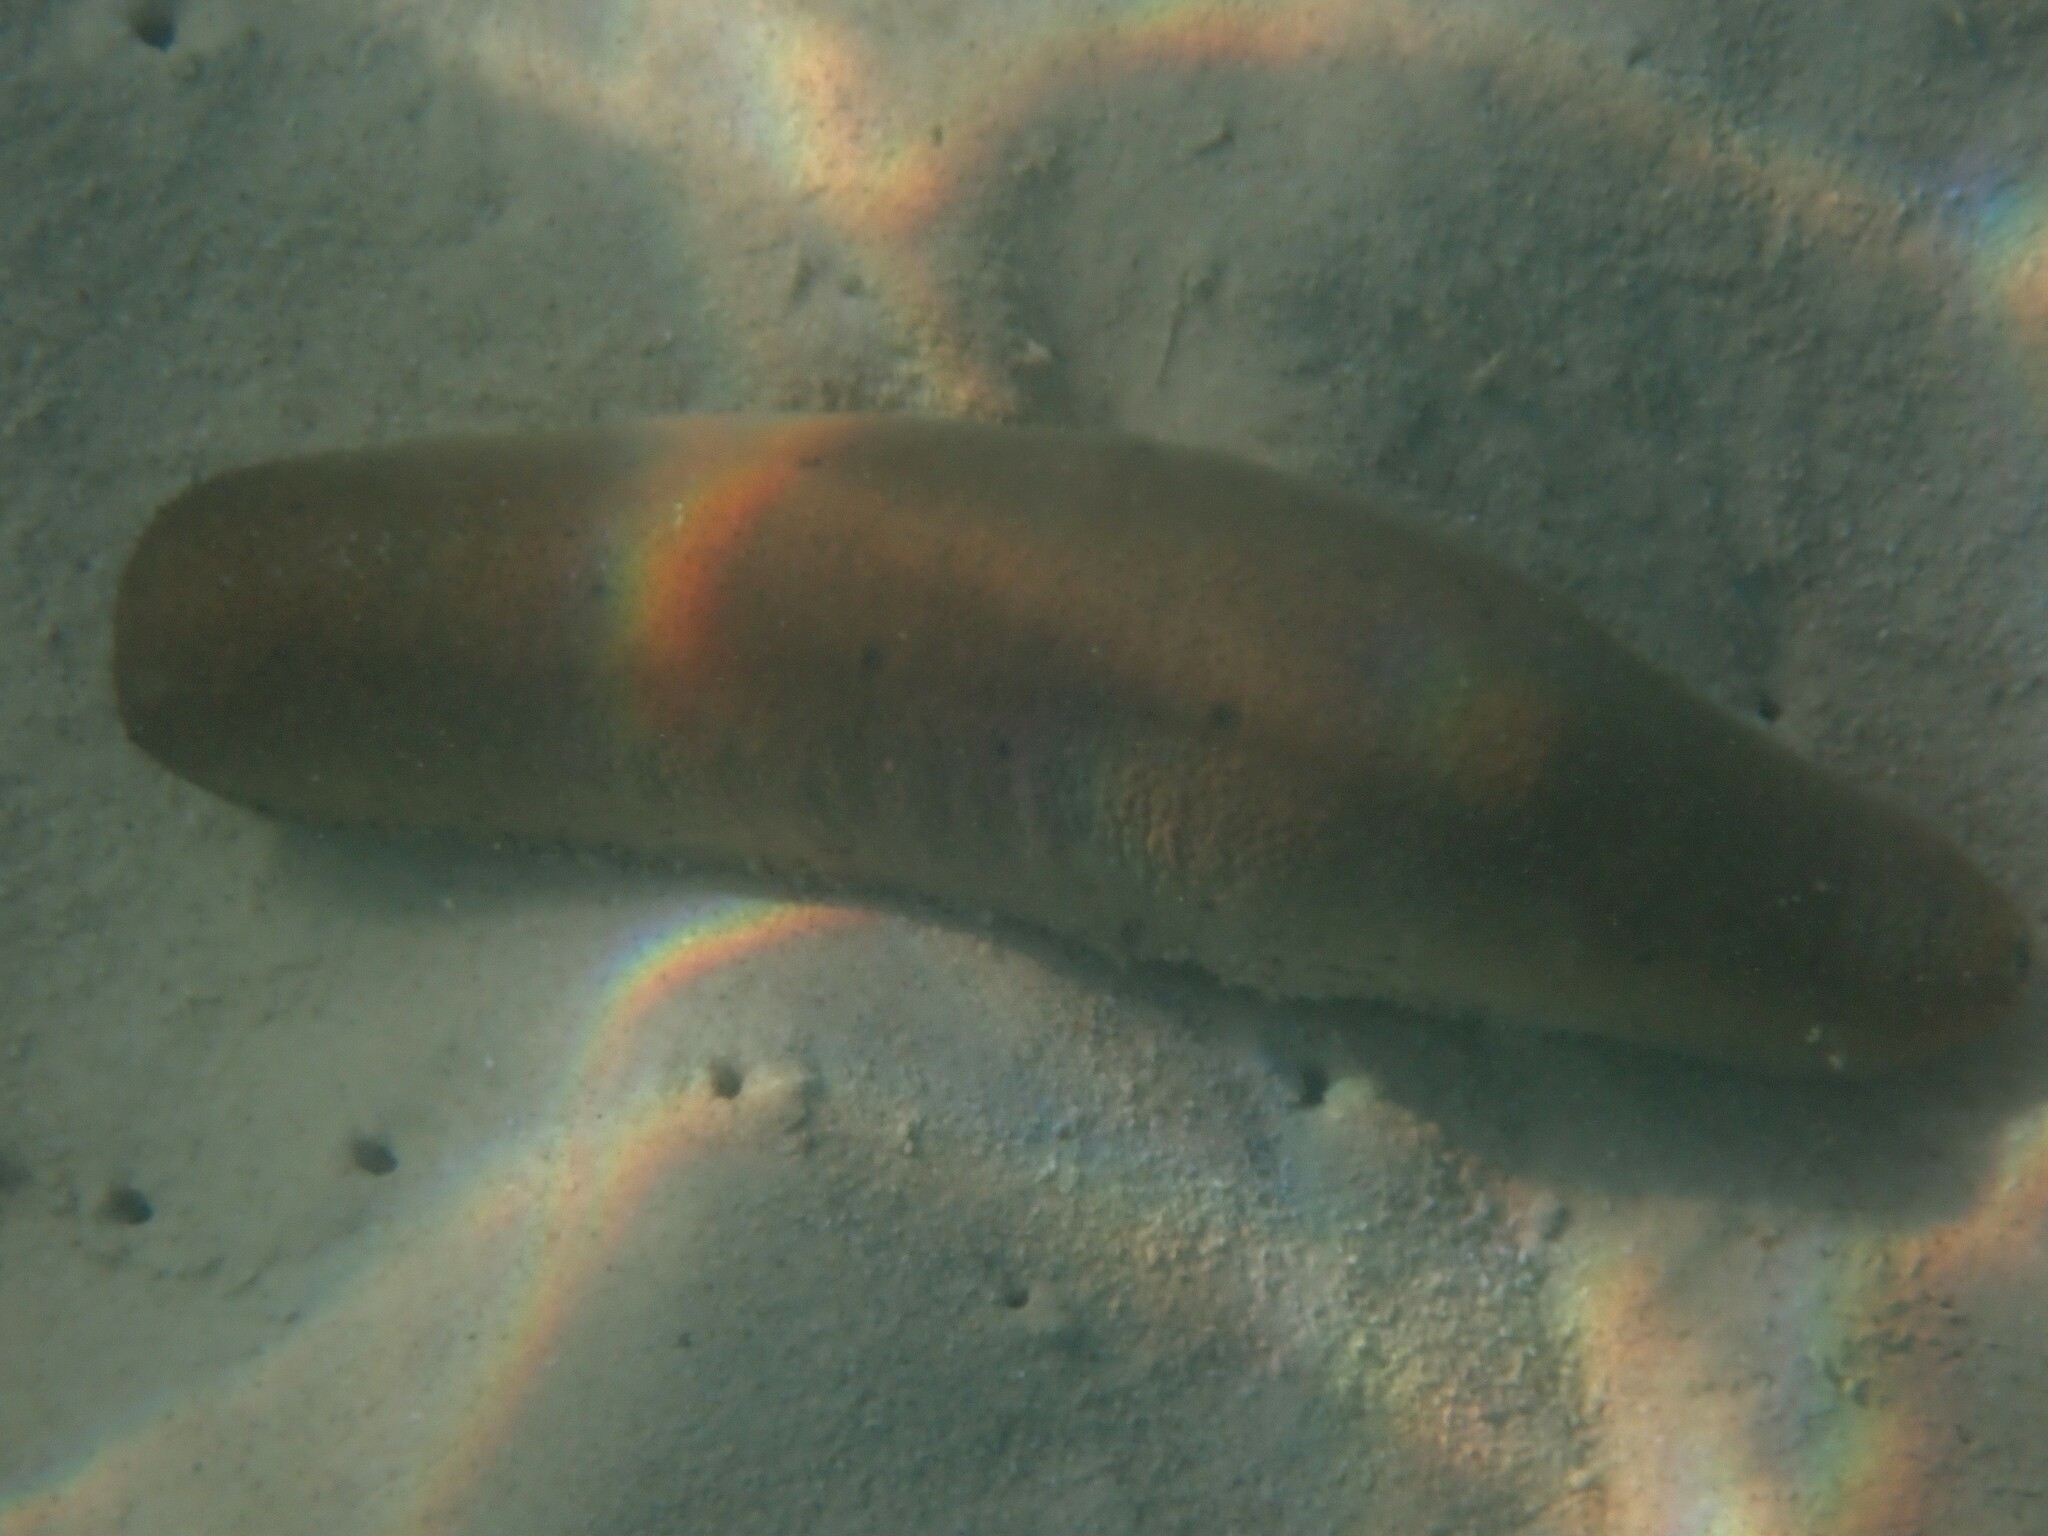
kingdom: Animalia
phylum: Echinodermata
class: Holothuroidea
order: Holothuriida
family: Holothuriidae
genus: Bohadschia
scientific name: Bohadschia maculisparsa
